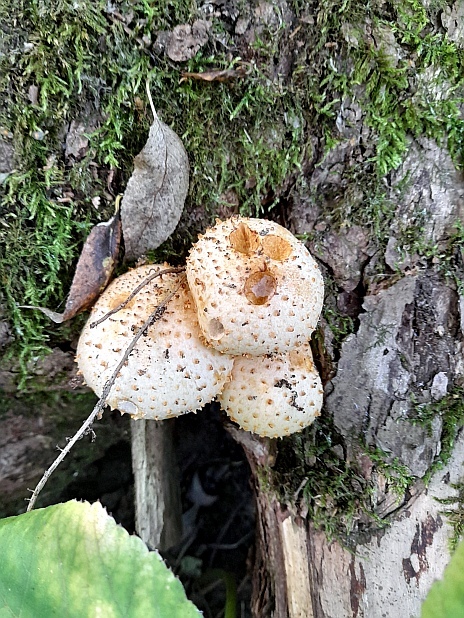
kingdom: Fungi
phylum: Basidiomycota
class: Agaricomycetes
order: Agaricales
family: Strophariaceae
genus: Pholiota
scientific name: Pholiota squarrosa
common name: Shaggy pholiota
